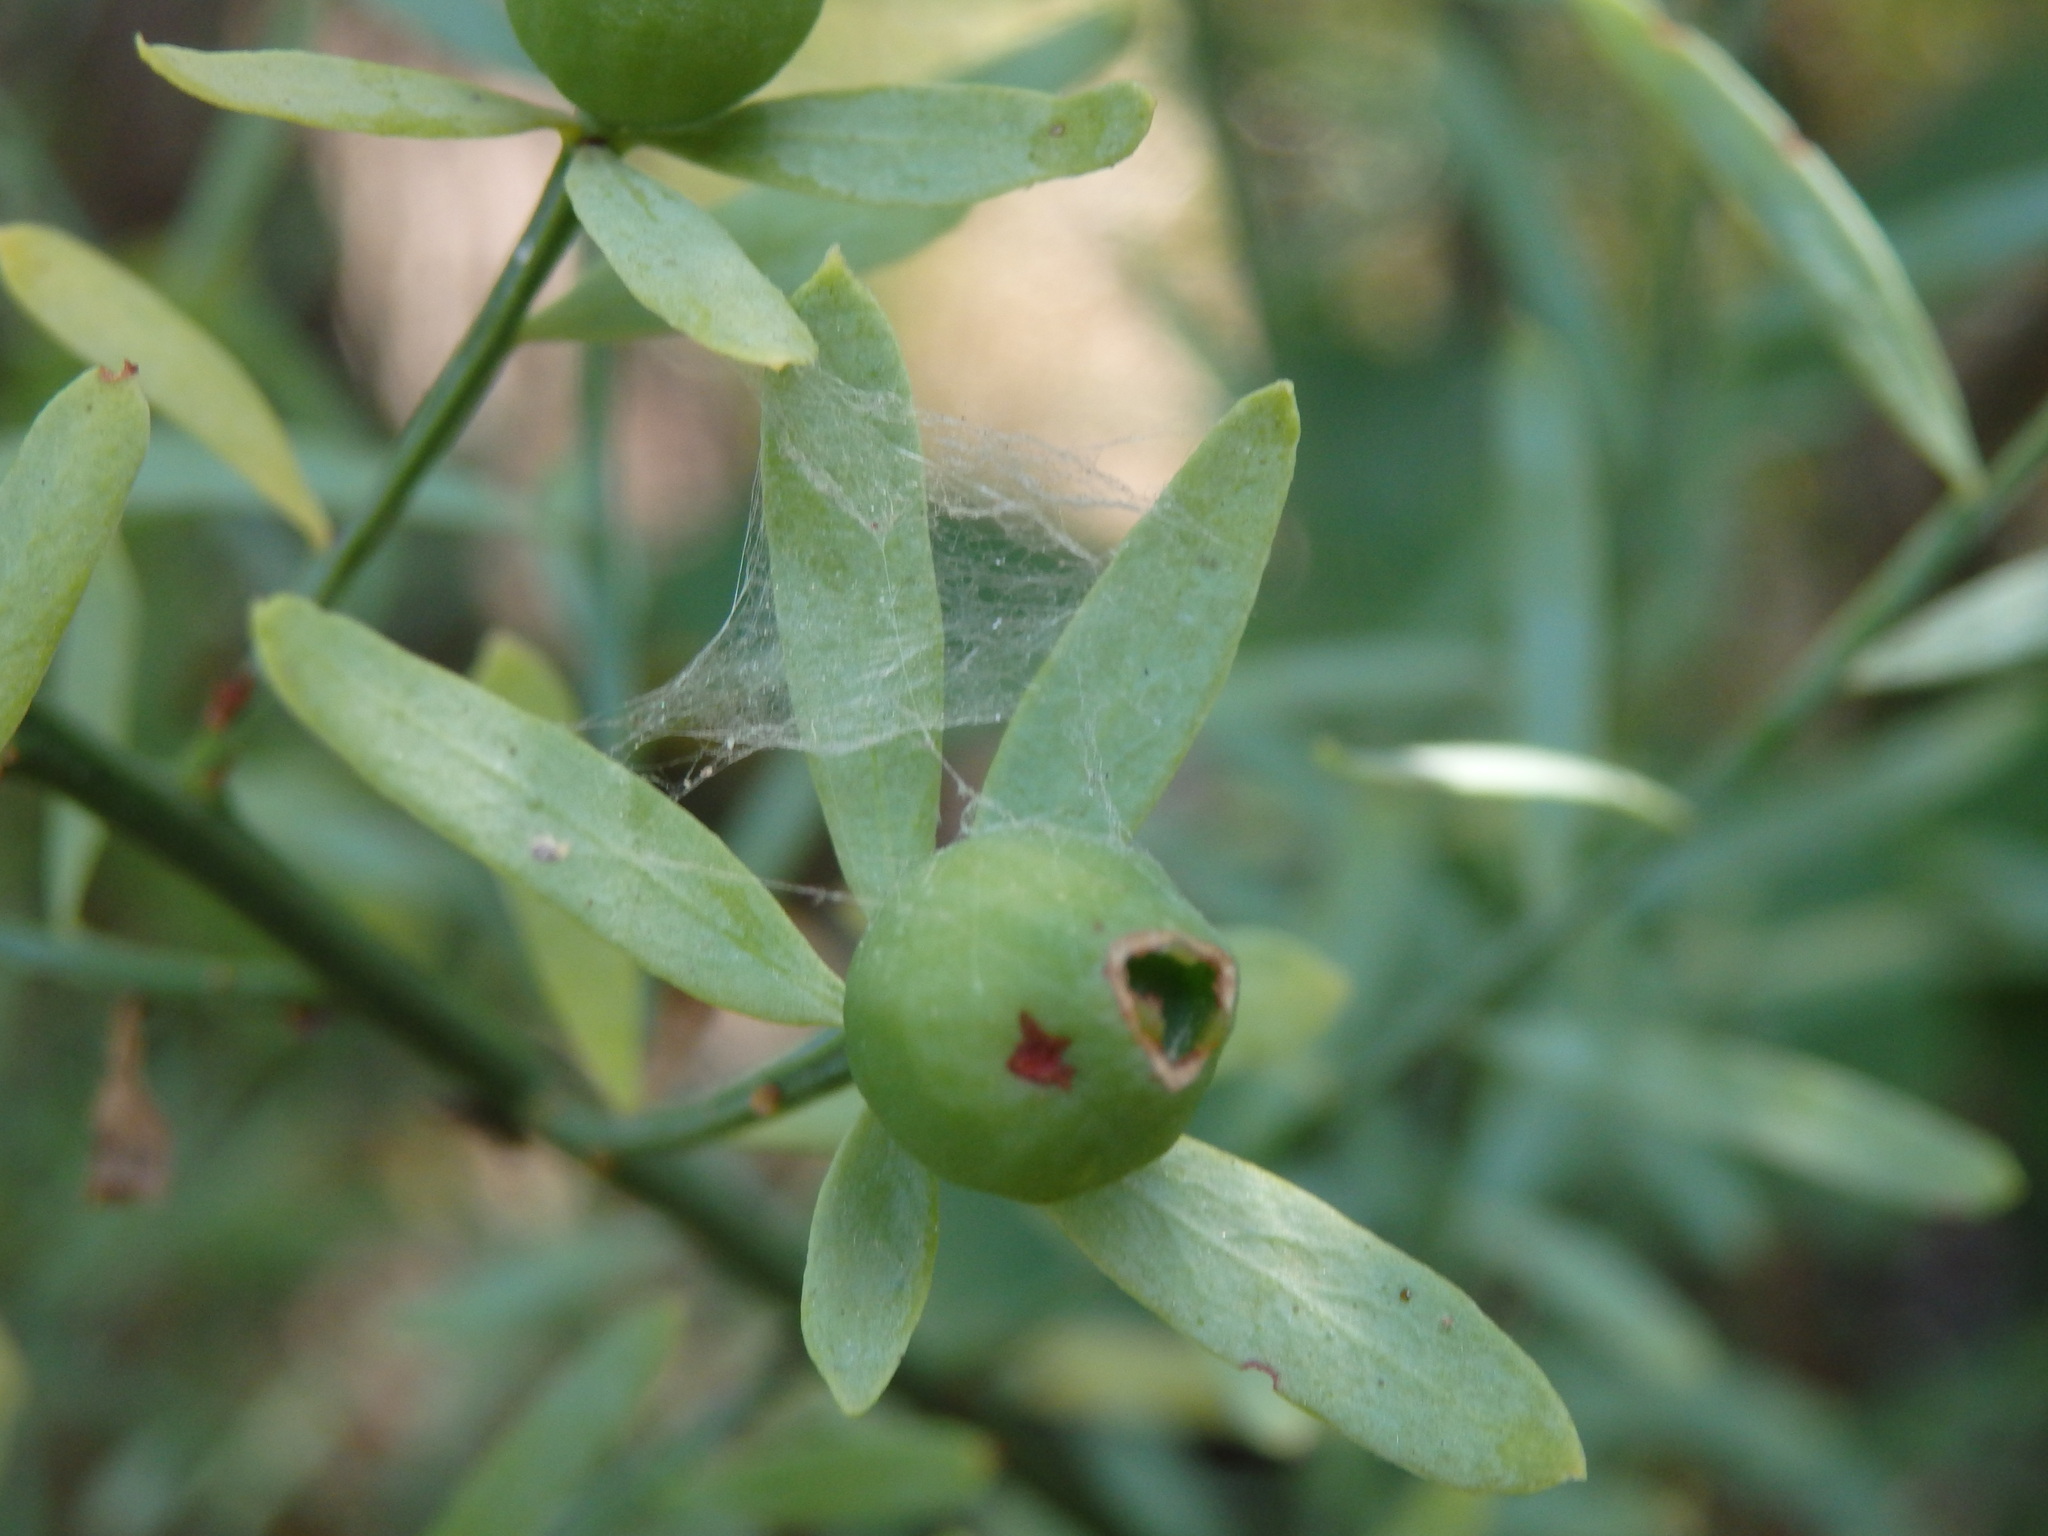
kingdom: Plantae
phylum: Tracheophyta
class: Magnoliopsida
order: Santalales
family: Santalaceae
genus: Osyris
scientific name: Osyris alba
